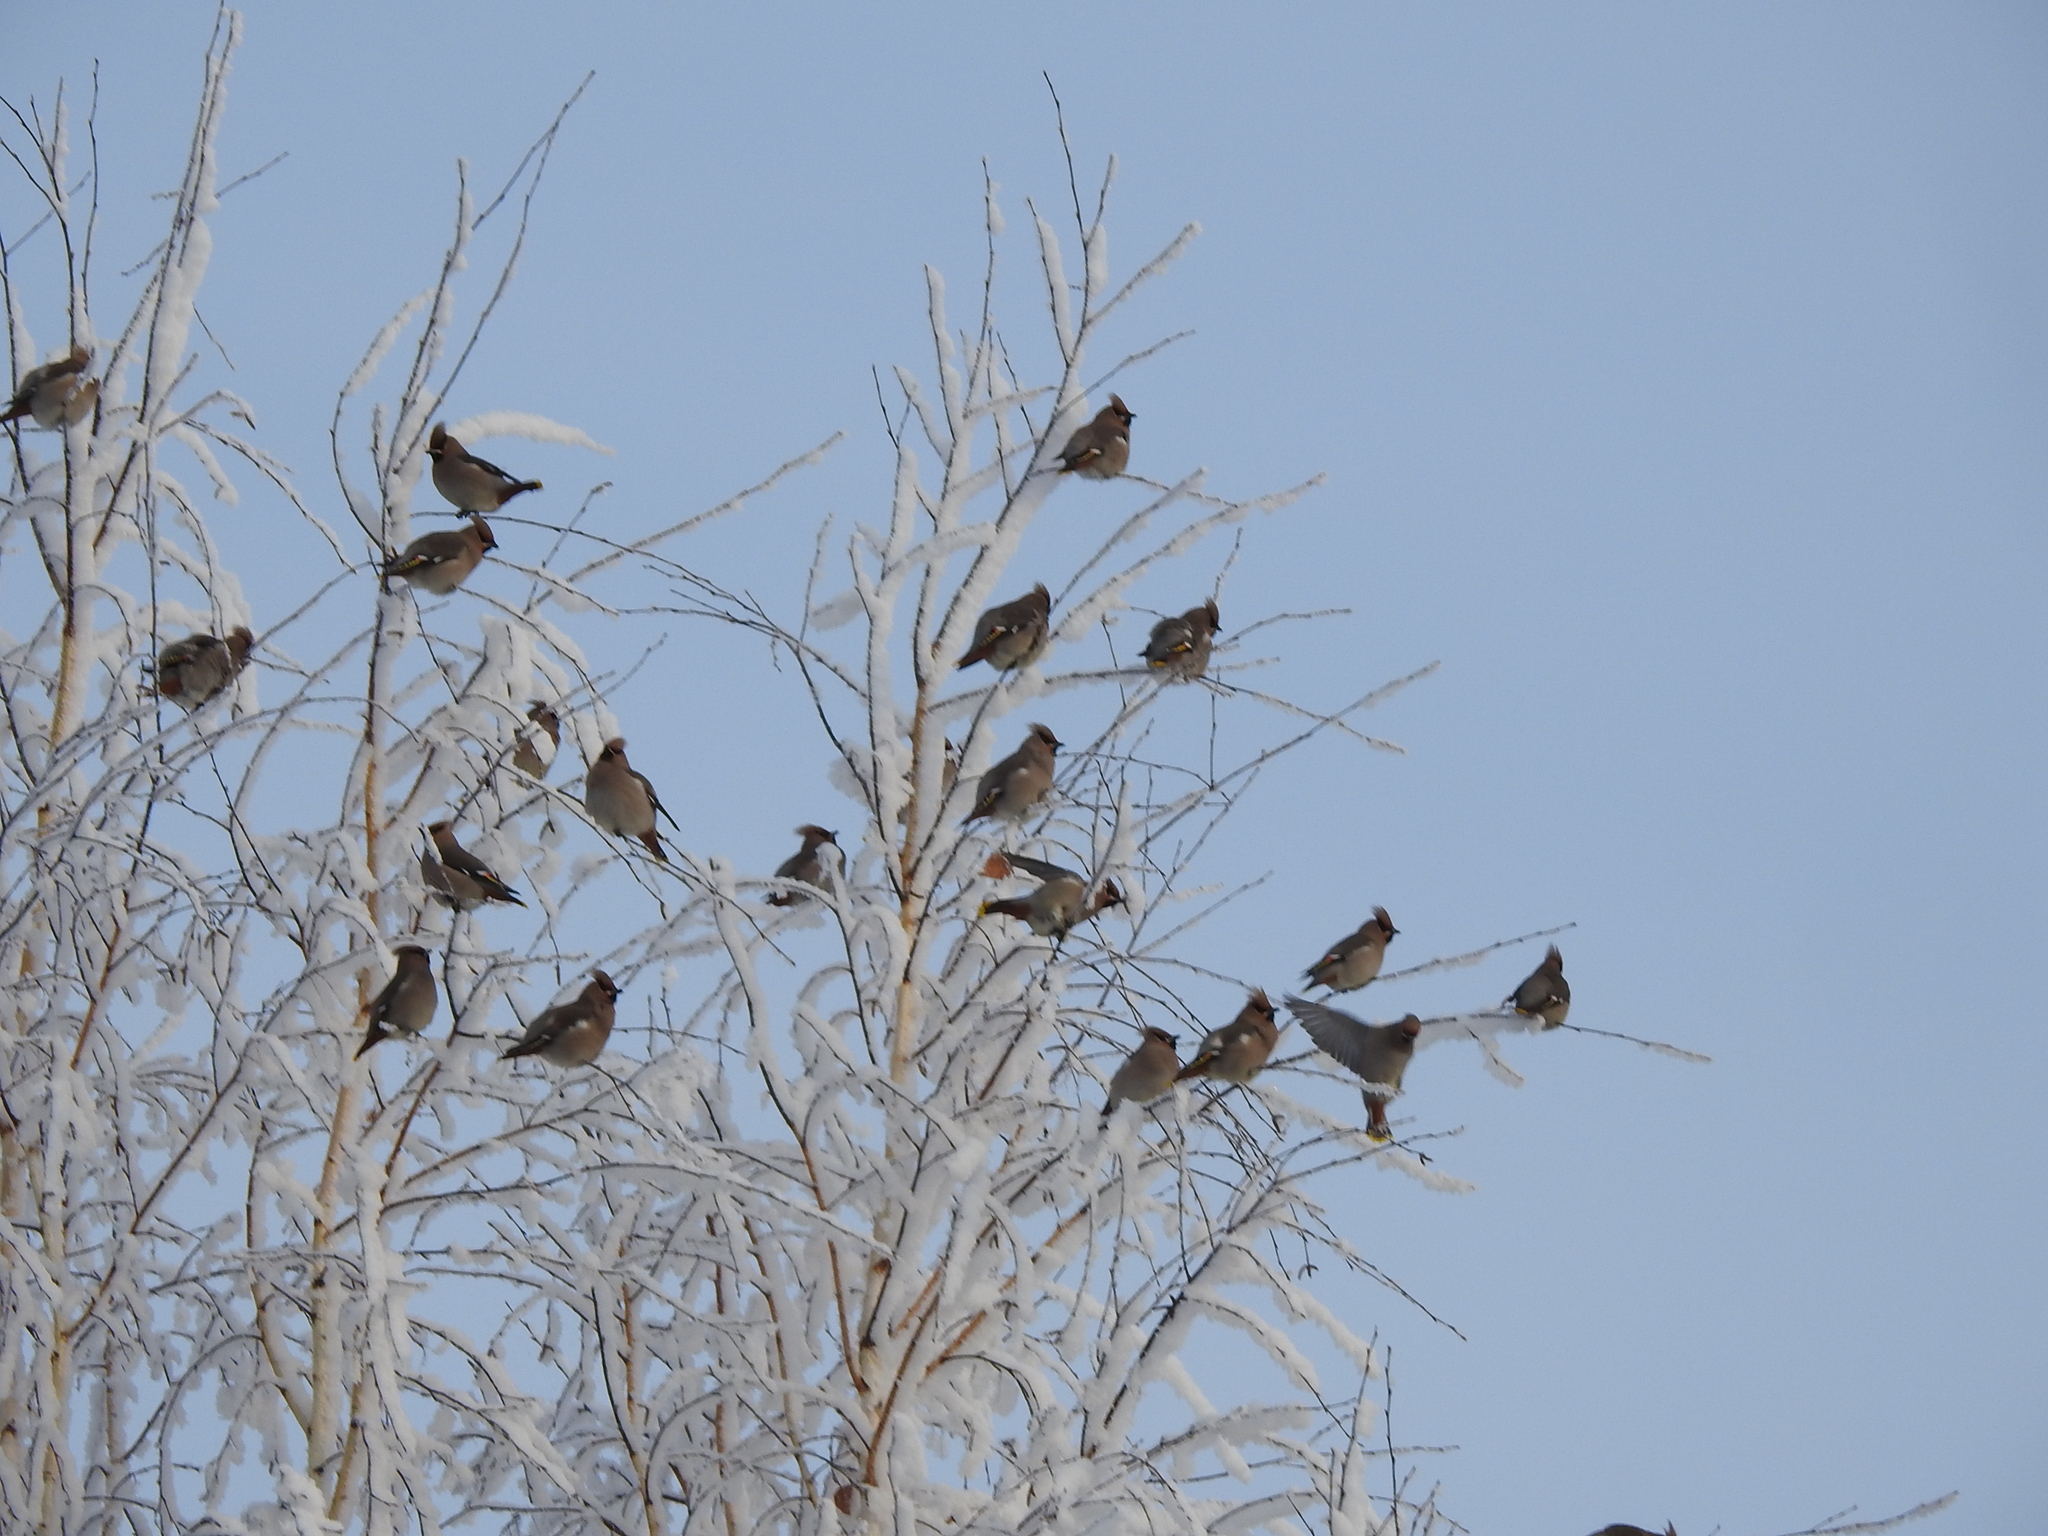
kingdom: Animalia
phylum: Chordata
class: Aves
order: Passeriformes
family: Bombycillidae
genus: Bombycilla
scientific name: Bombycilla garrulus
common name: Bohemian waxwing
